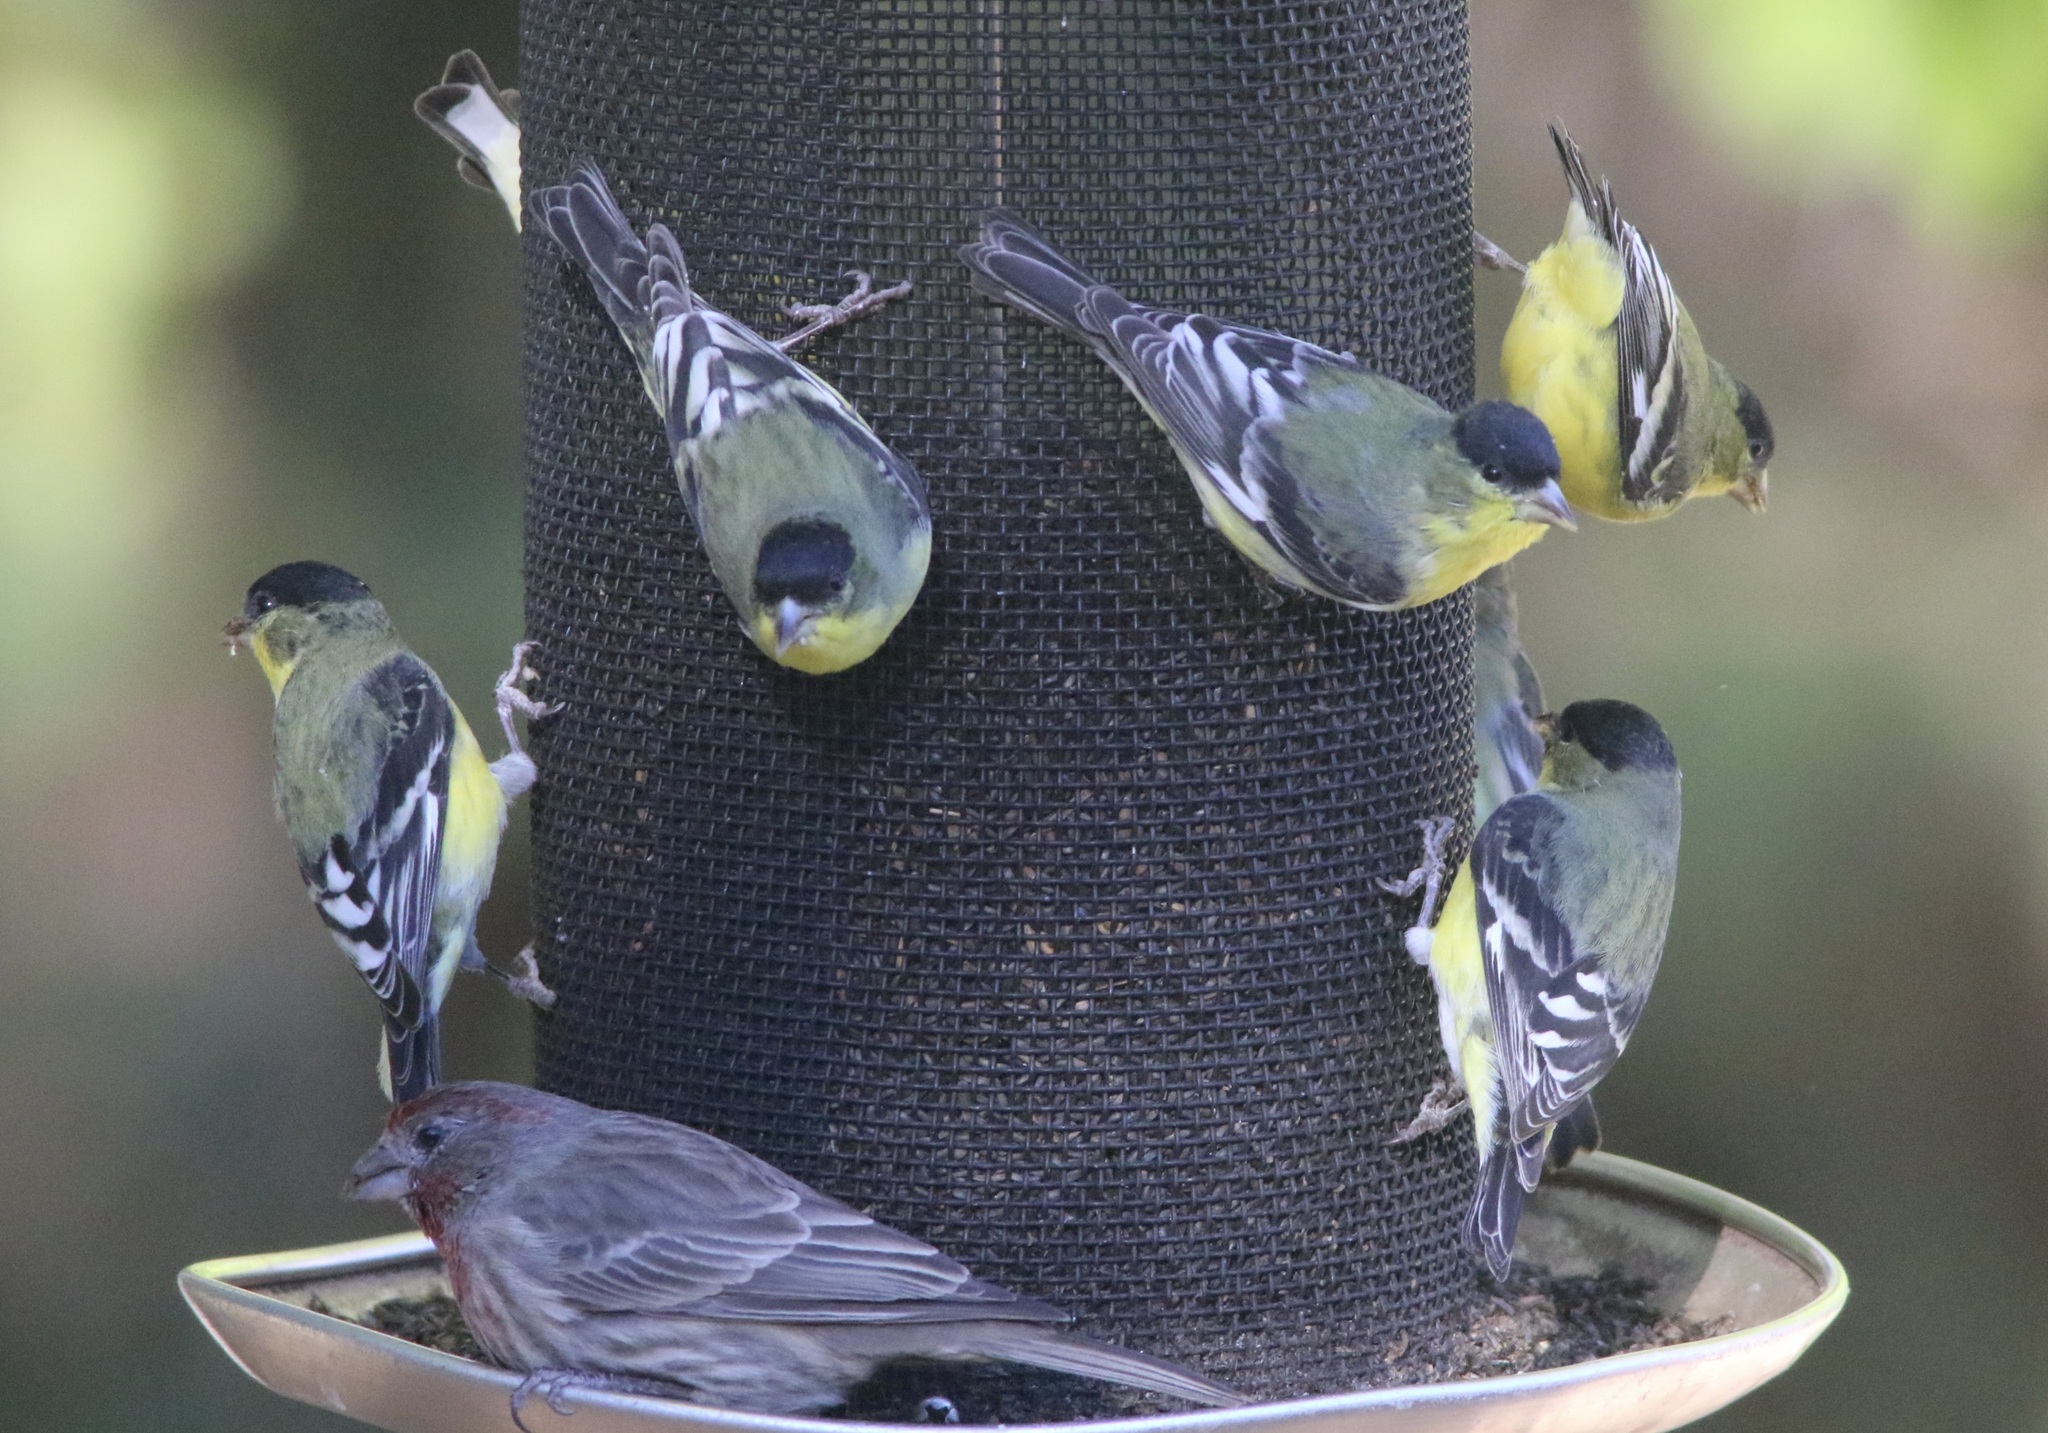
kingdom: Animalia
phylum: Chordata
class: Aves
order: Passeriformes
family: Fringillidae
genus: Spinus
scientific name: Spinus psaltria
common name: Lesser goldfinch
